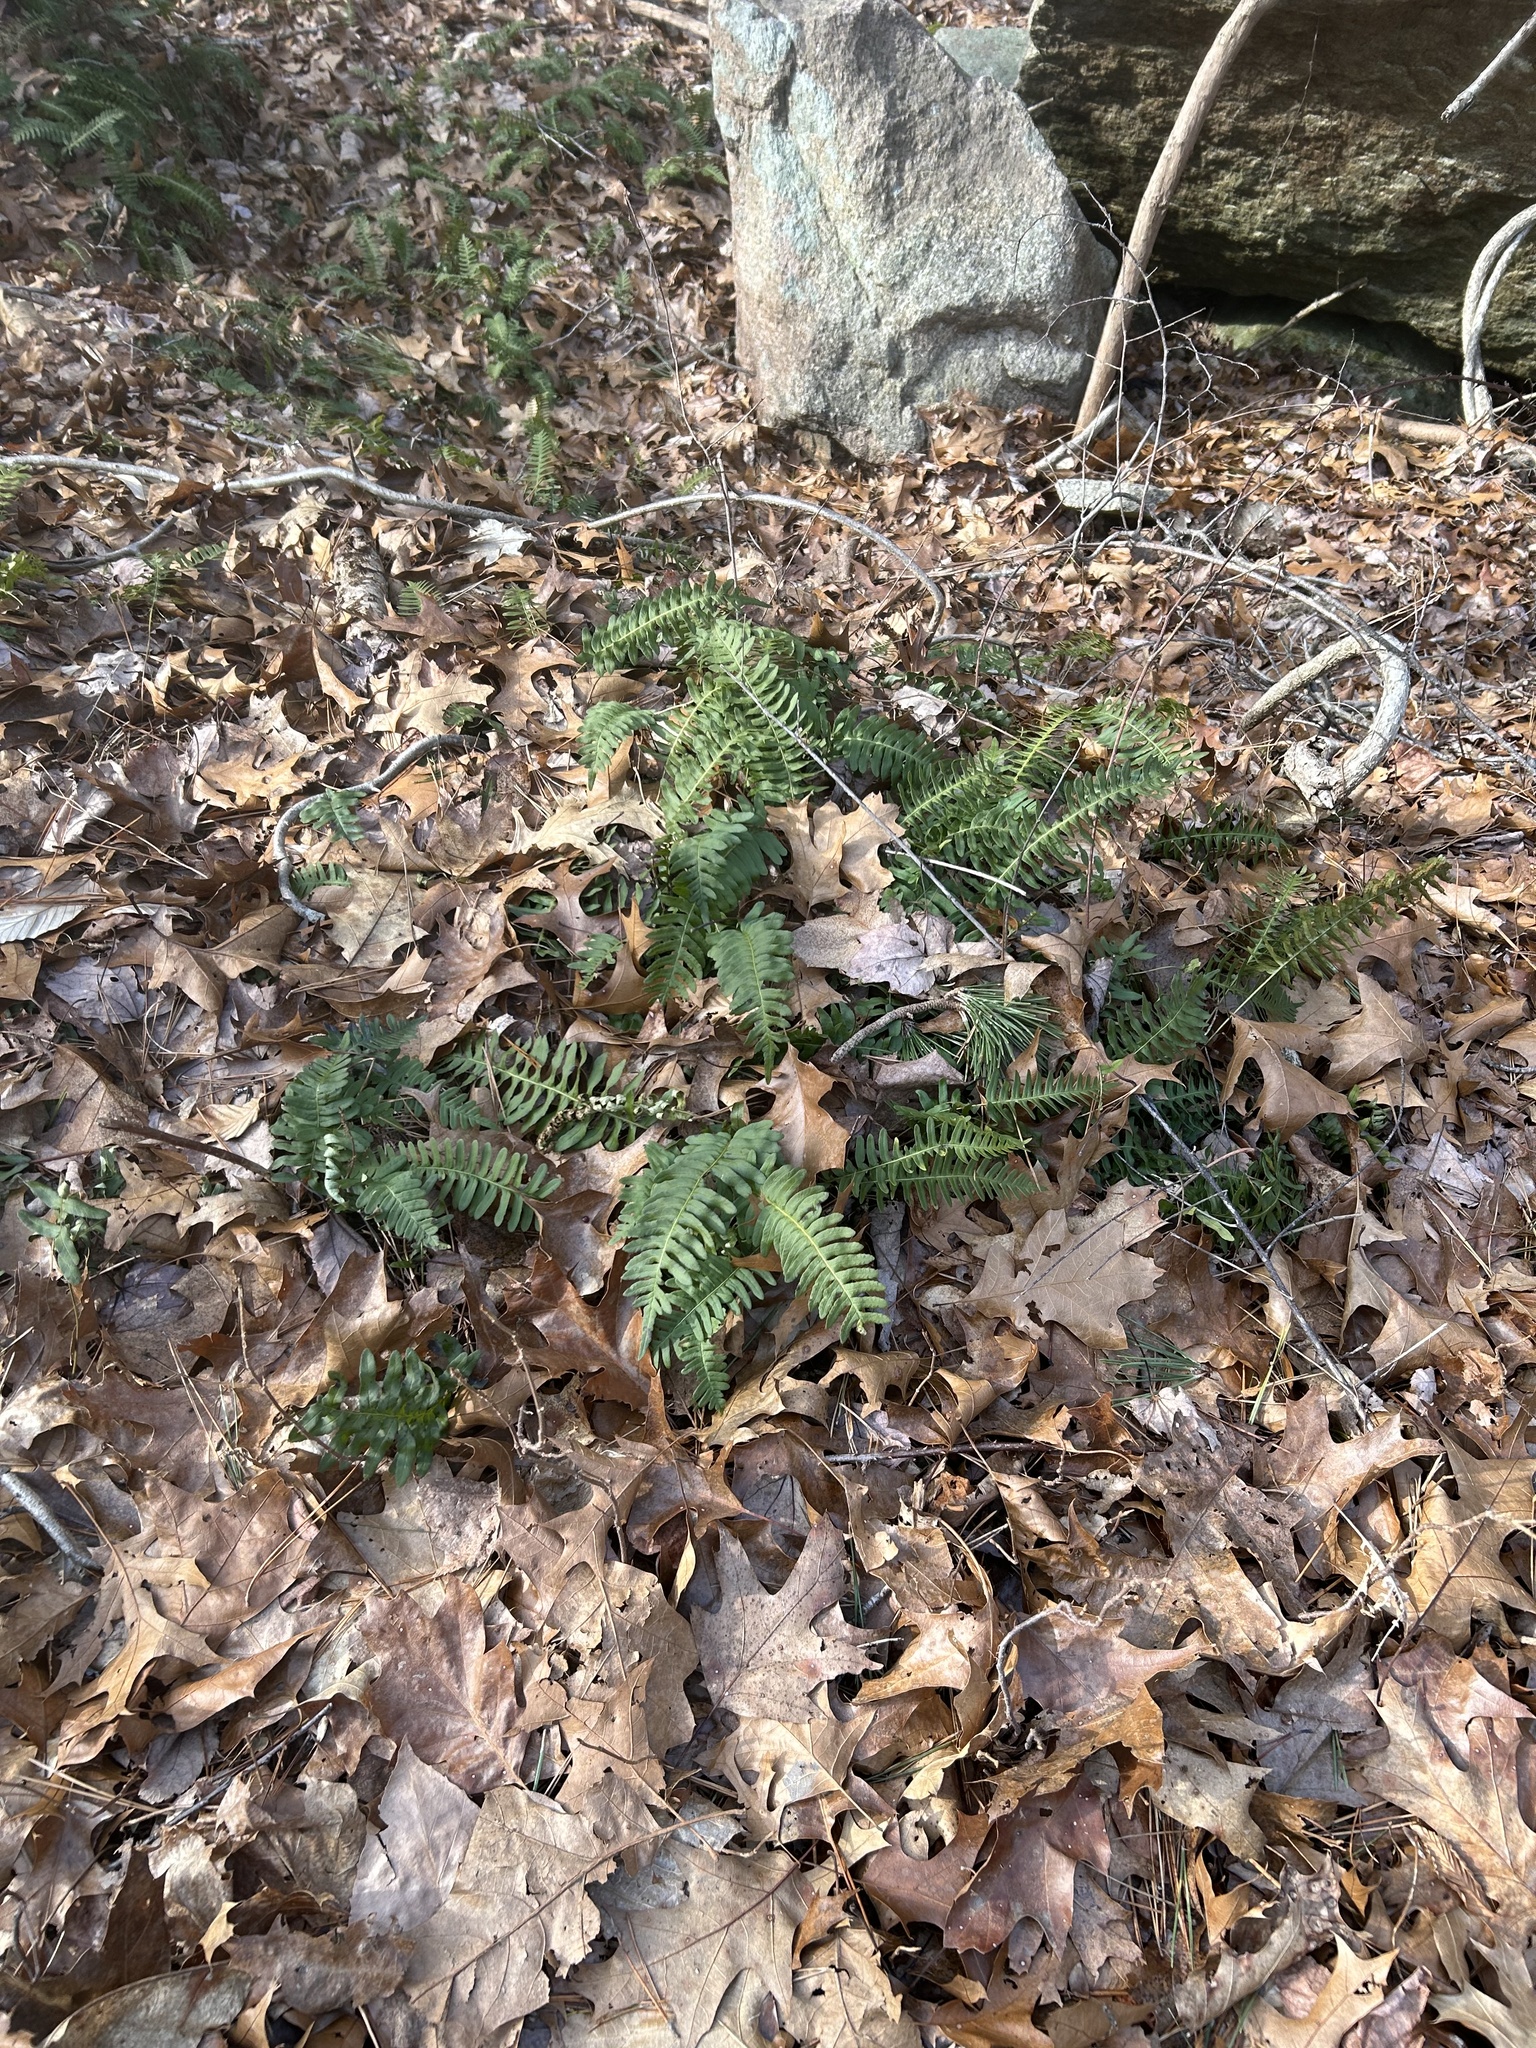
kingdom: Plantae
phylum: Tracheophyta
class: Polypodiopsida
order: Polypodiales
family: Polypodiaceae
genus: Polypodium
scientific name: Polypodium virginianum
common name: American wall fern
